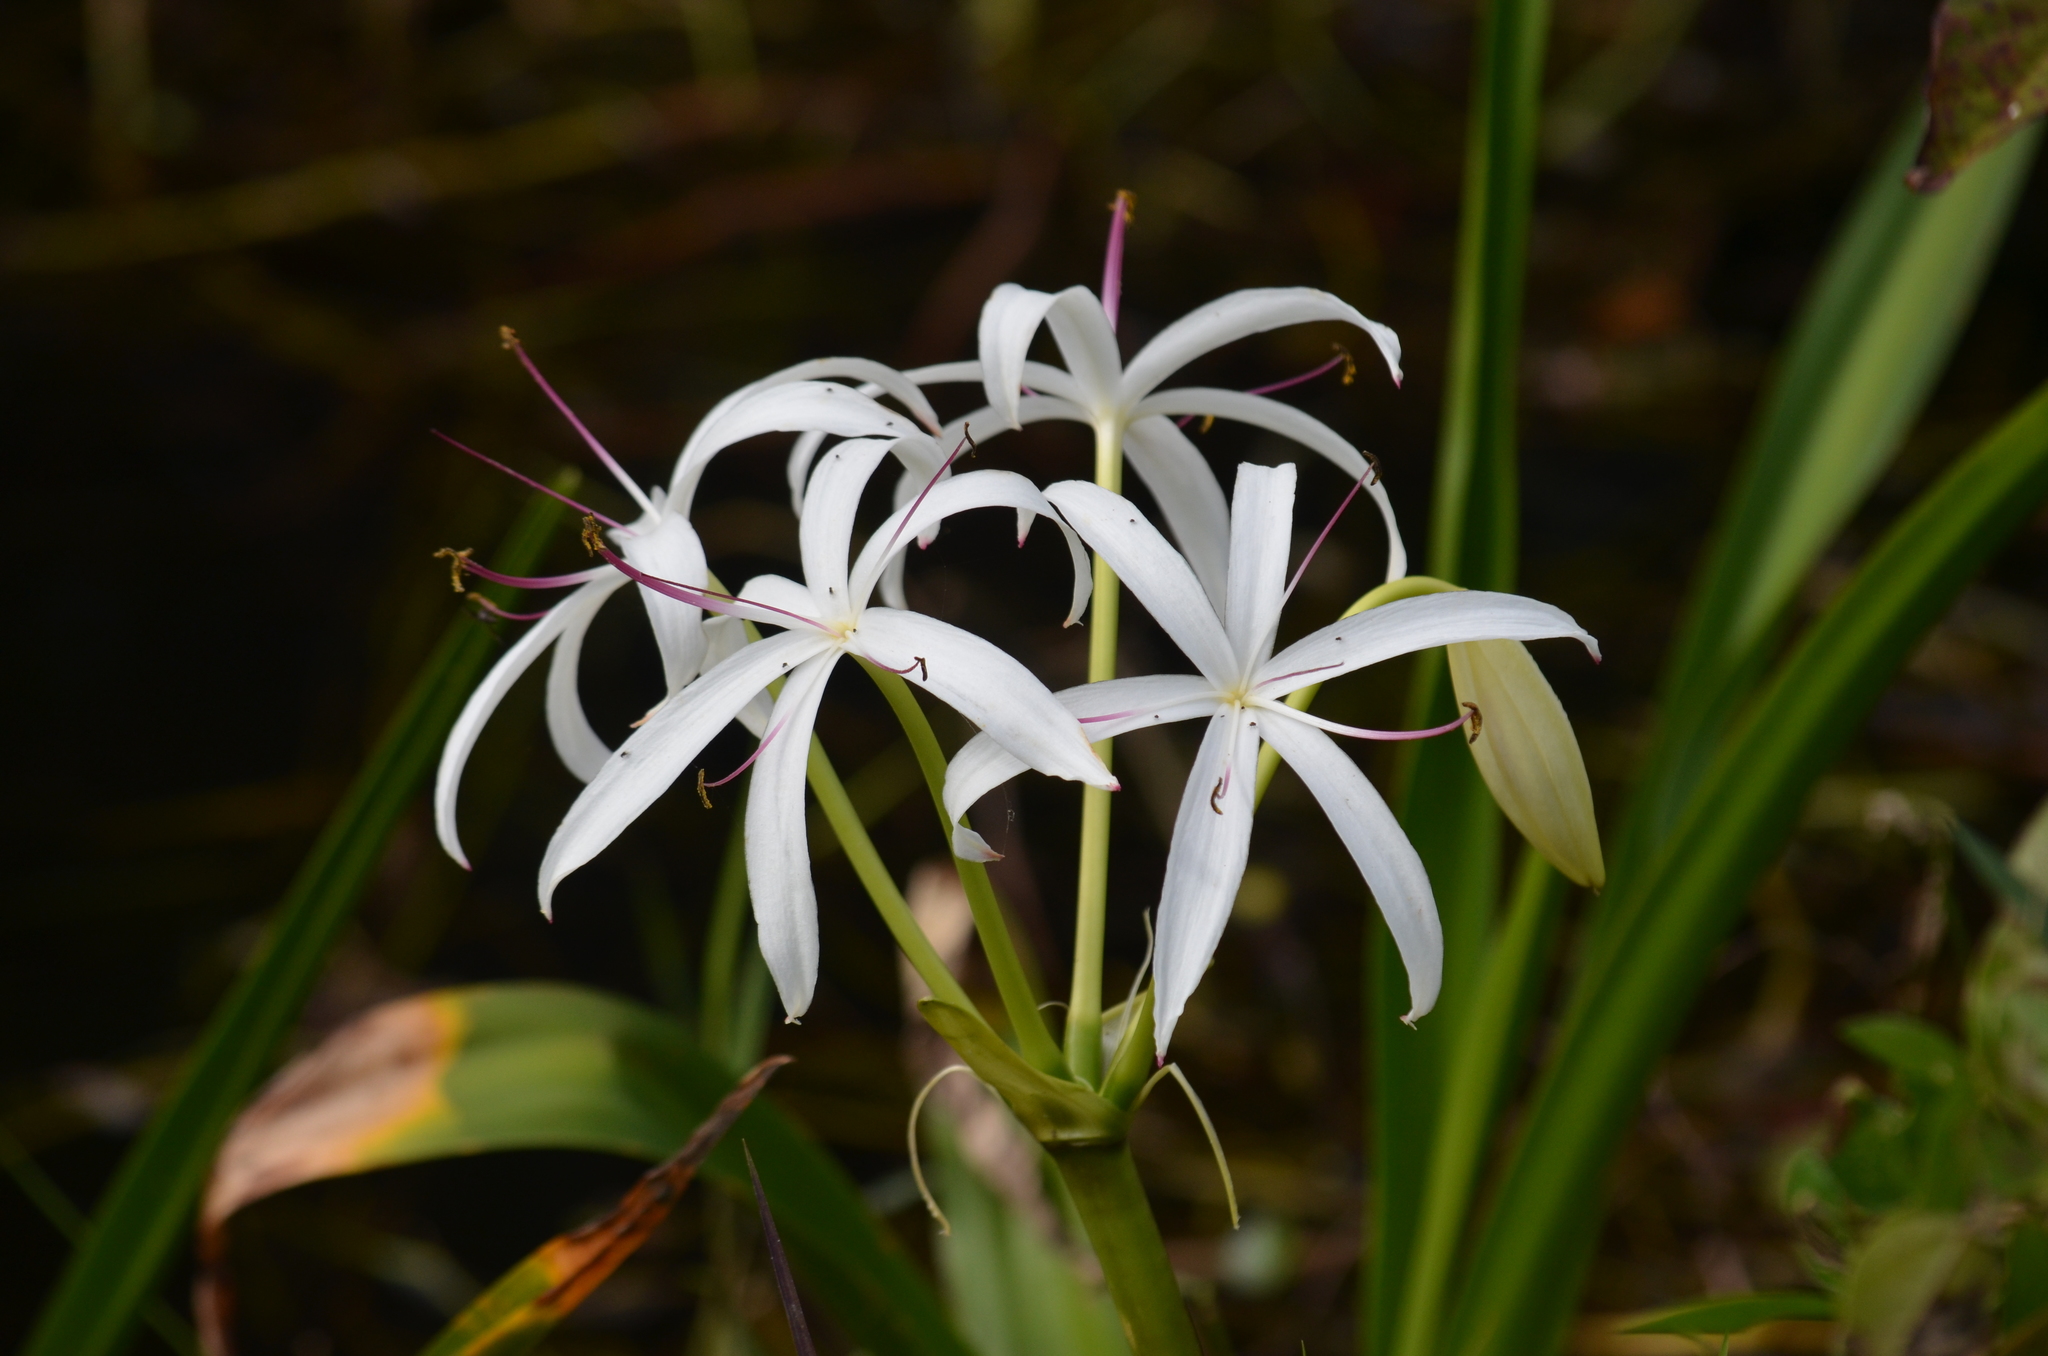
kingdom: Plantae
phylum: Tracheophyta
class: Liliopsida
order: Asparagales
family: Amaryllidaceae
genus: Crinum
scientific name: Crinum americanum
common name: Florida swamp-lily
